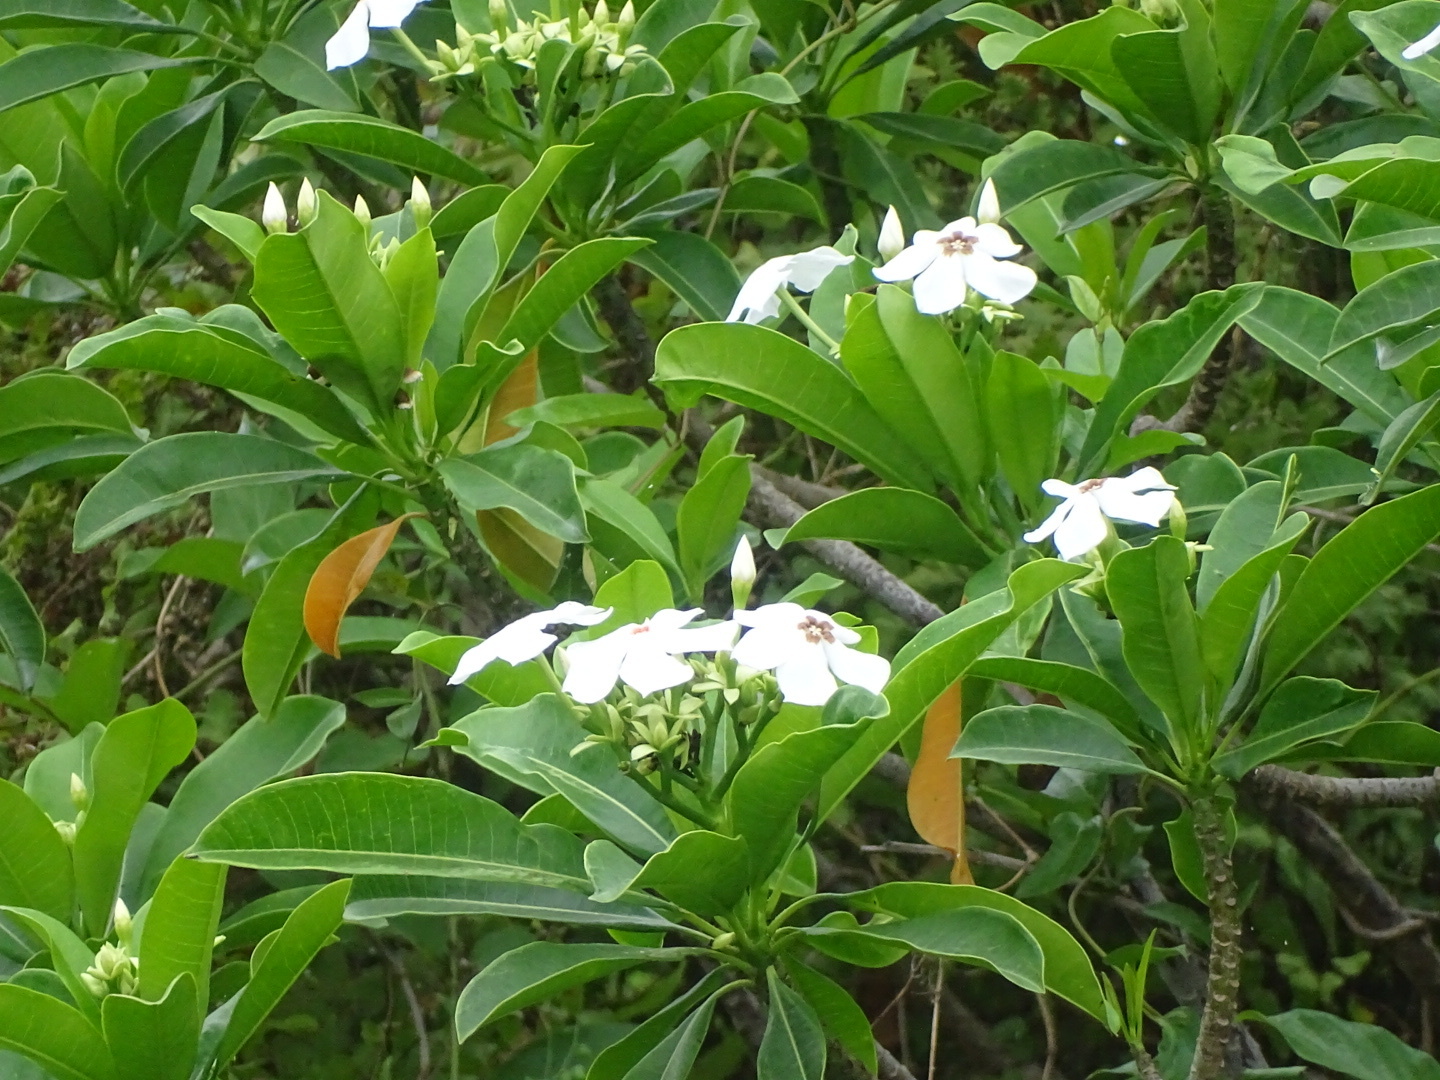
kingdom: Plantae
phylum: Tracheophyta
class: Magnoliopsida
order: Gentianales
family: Apocynaceae
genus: Cerbera
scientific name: Cerbera manghas
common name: Reva
